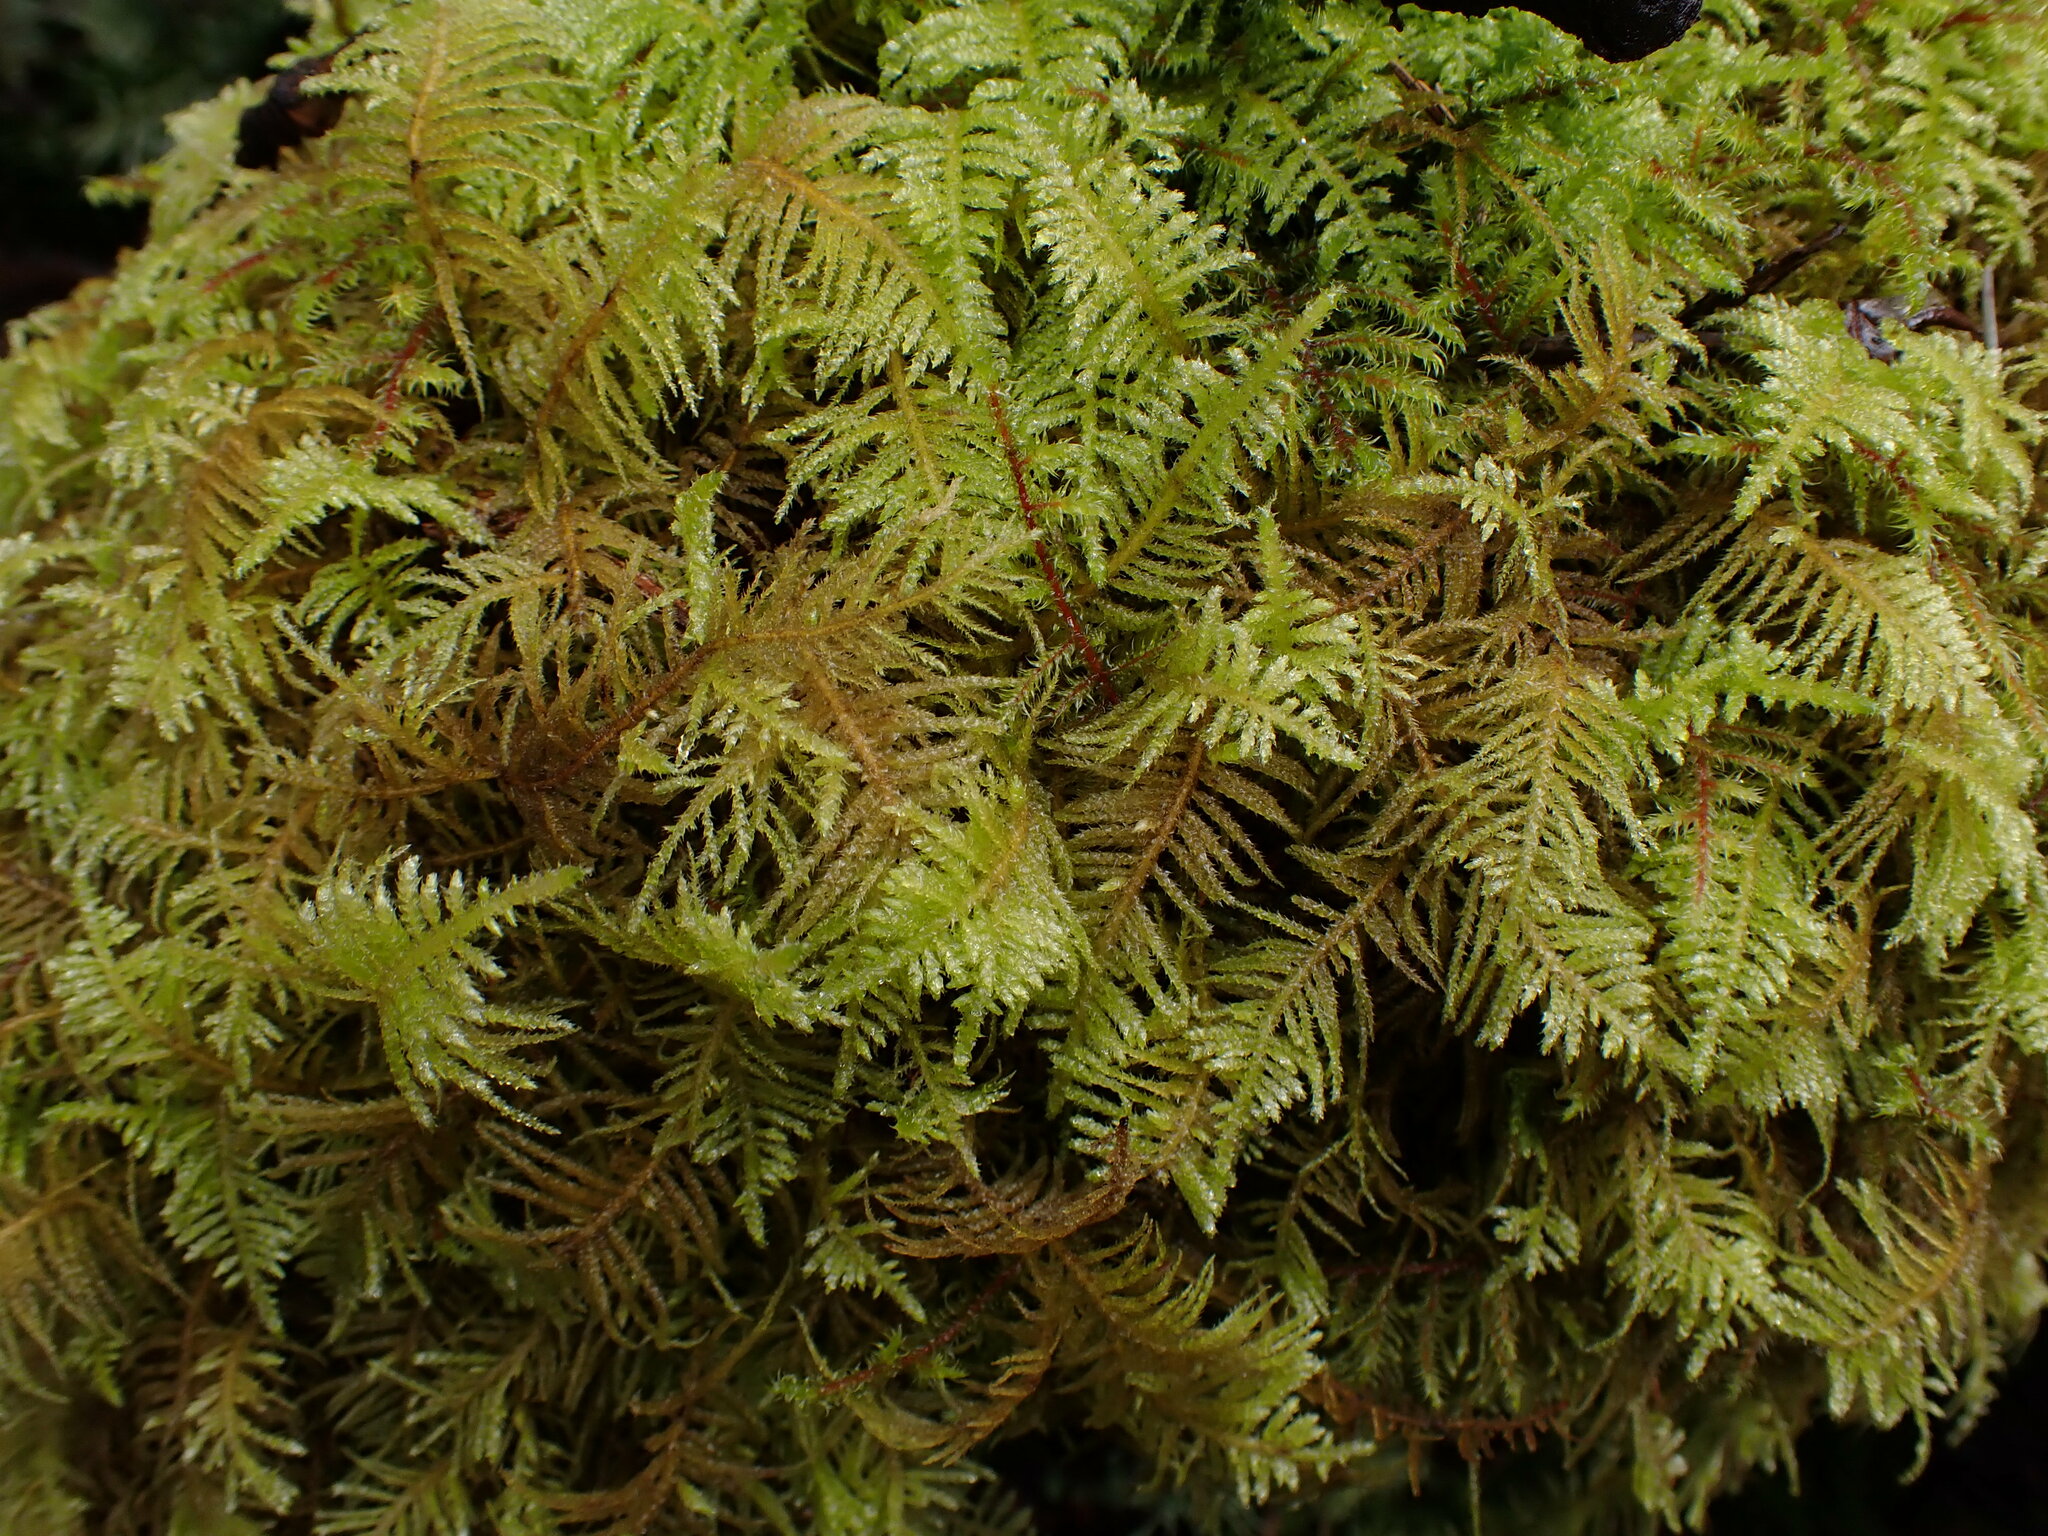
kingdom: Plantae
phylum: Bryophyta
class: Bryopsida
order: Hypnales
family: Brachytheciaceae
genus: Kindbergia
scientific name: Kindbergia oregana
